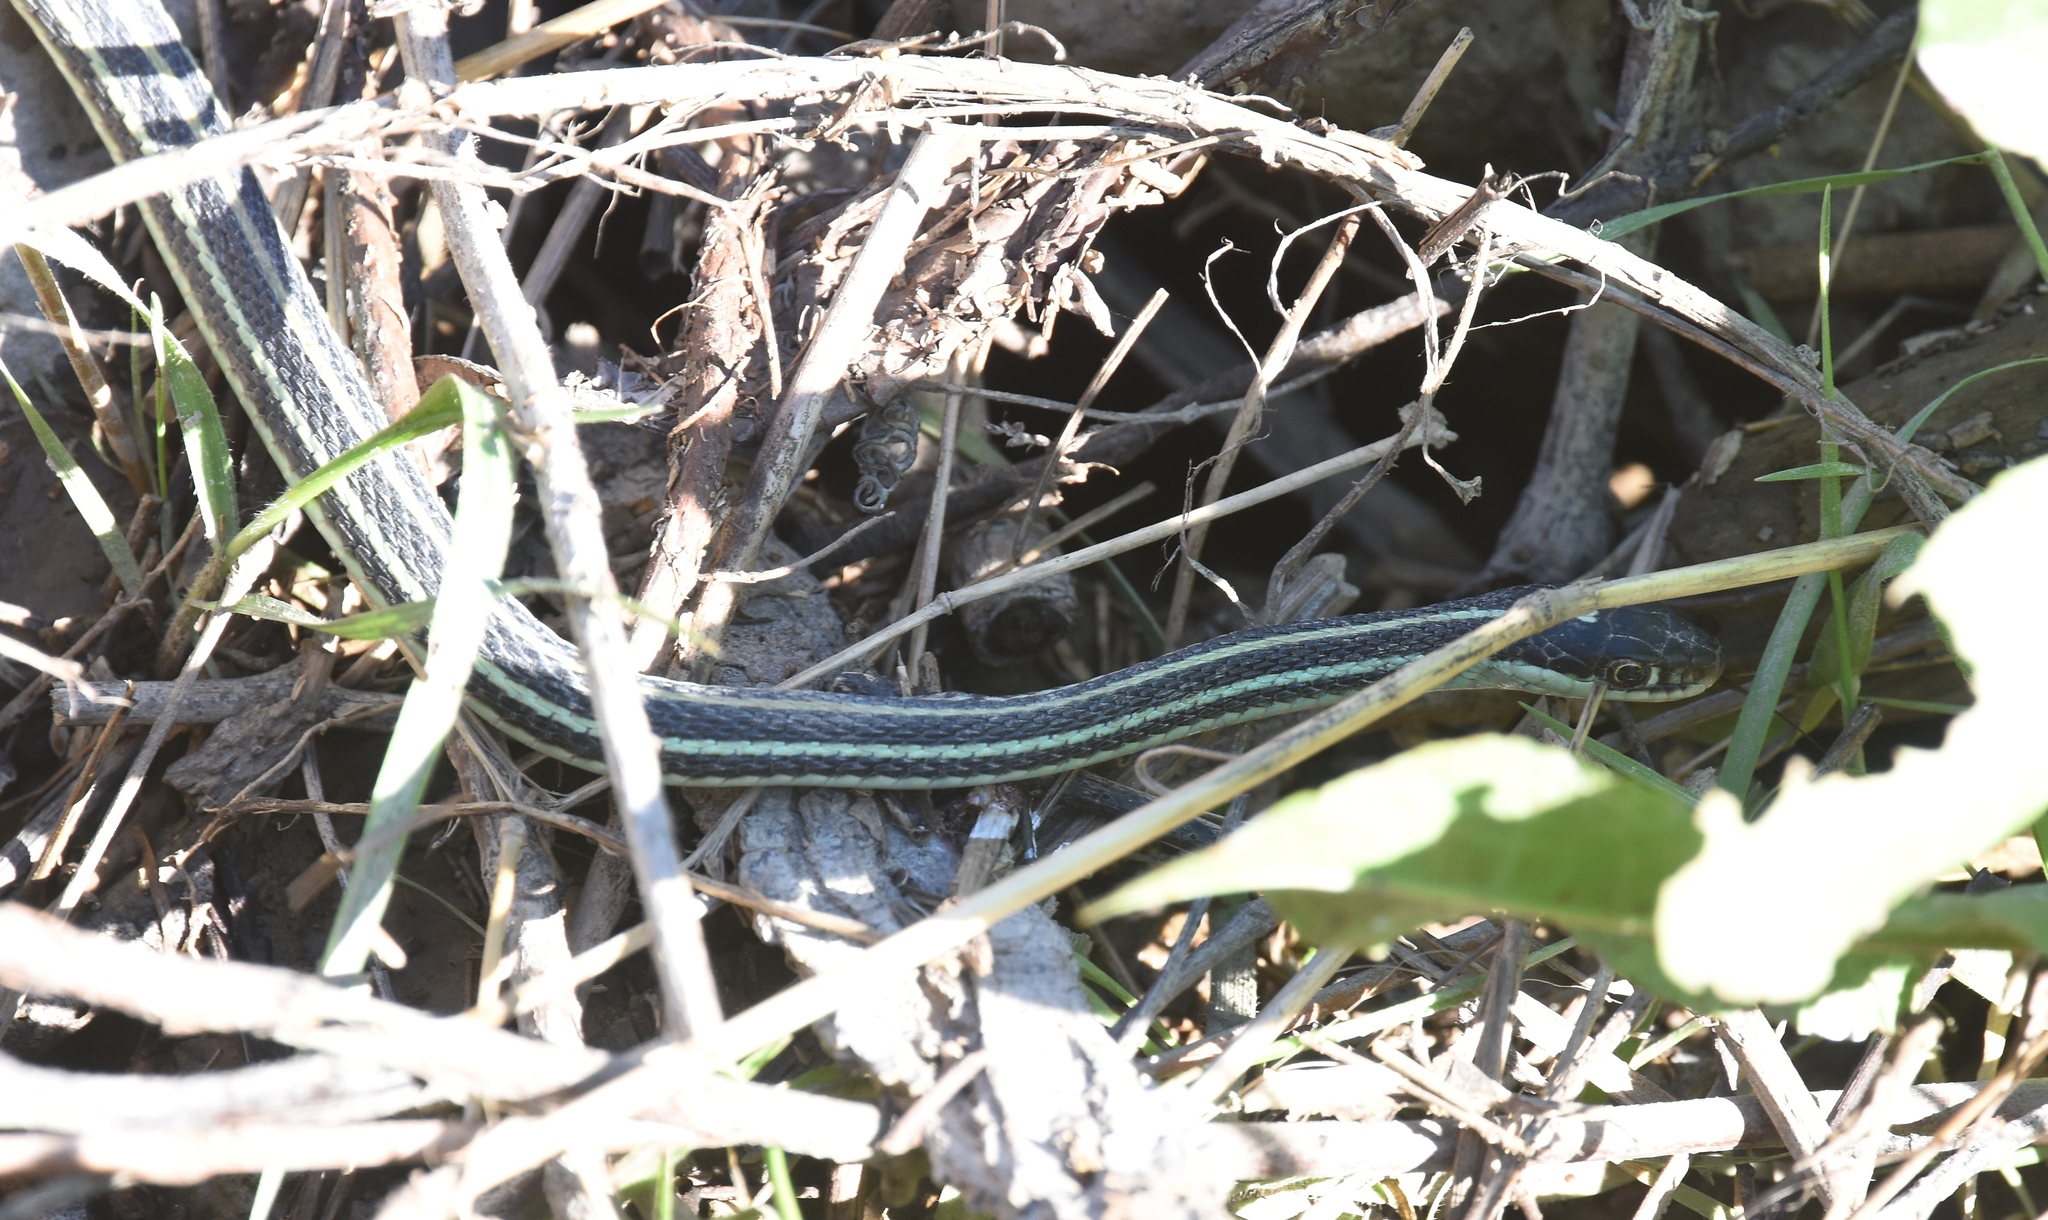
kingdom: Animalia
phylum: Chordata
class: Squamata
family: Colubridae
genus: Thamnophis
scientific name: Thamnophis proximus
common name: Western ribbon snake
